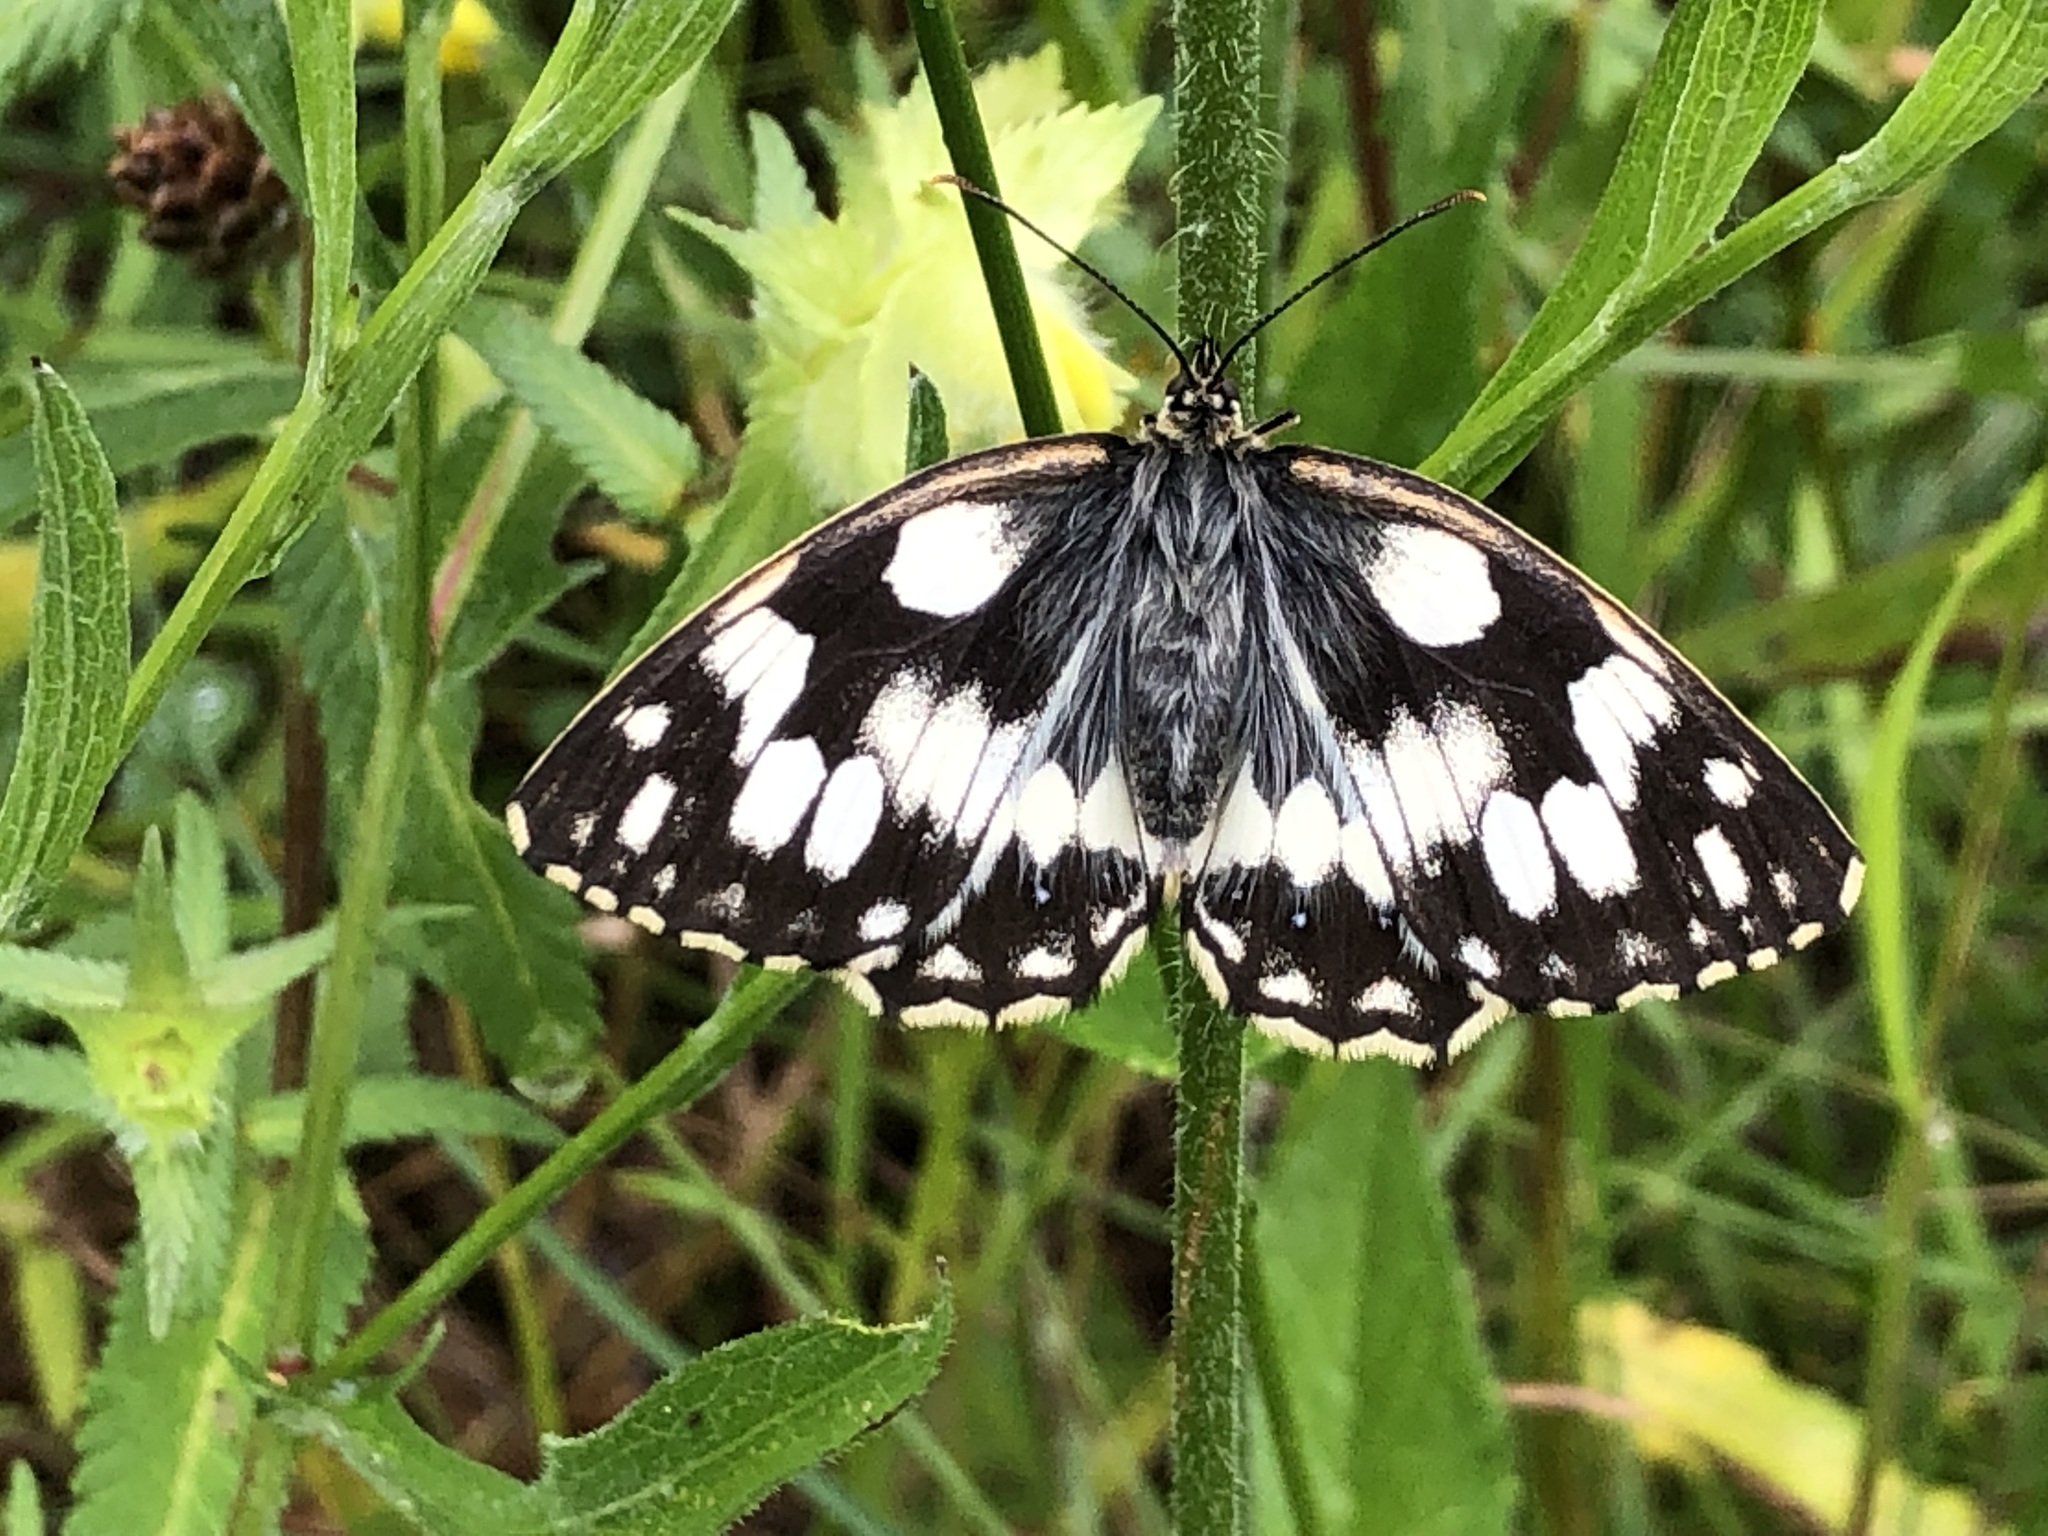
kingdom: Animalia
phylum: Arthropoda
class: Insecta
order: Lepidoptera
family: Nymphalidae
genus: Melanargia
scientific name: Melanargia galathea
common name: Marbled white
